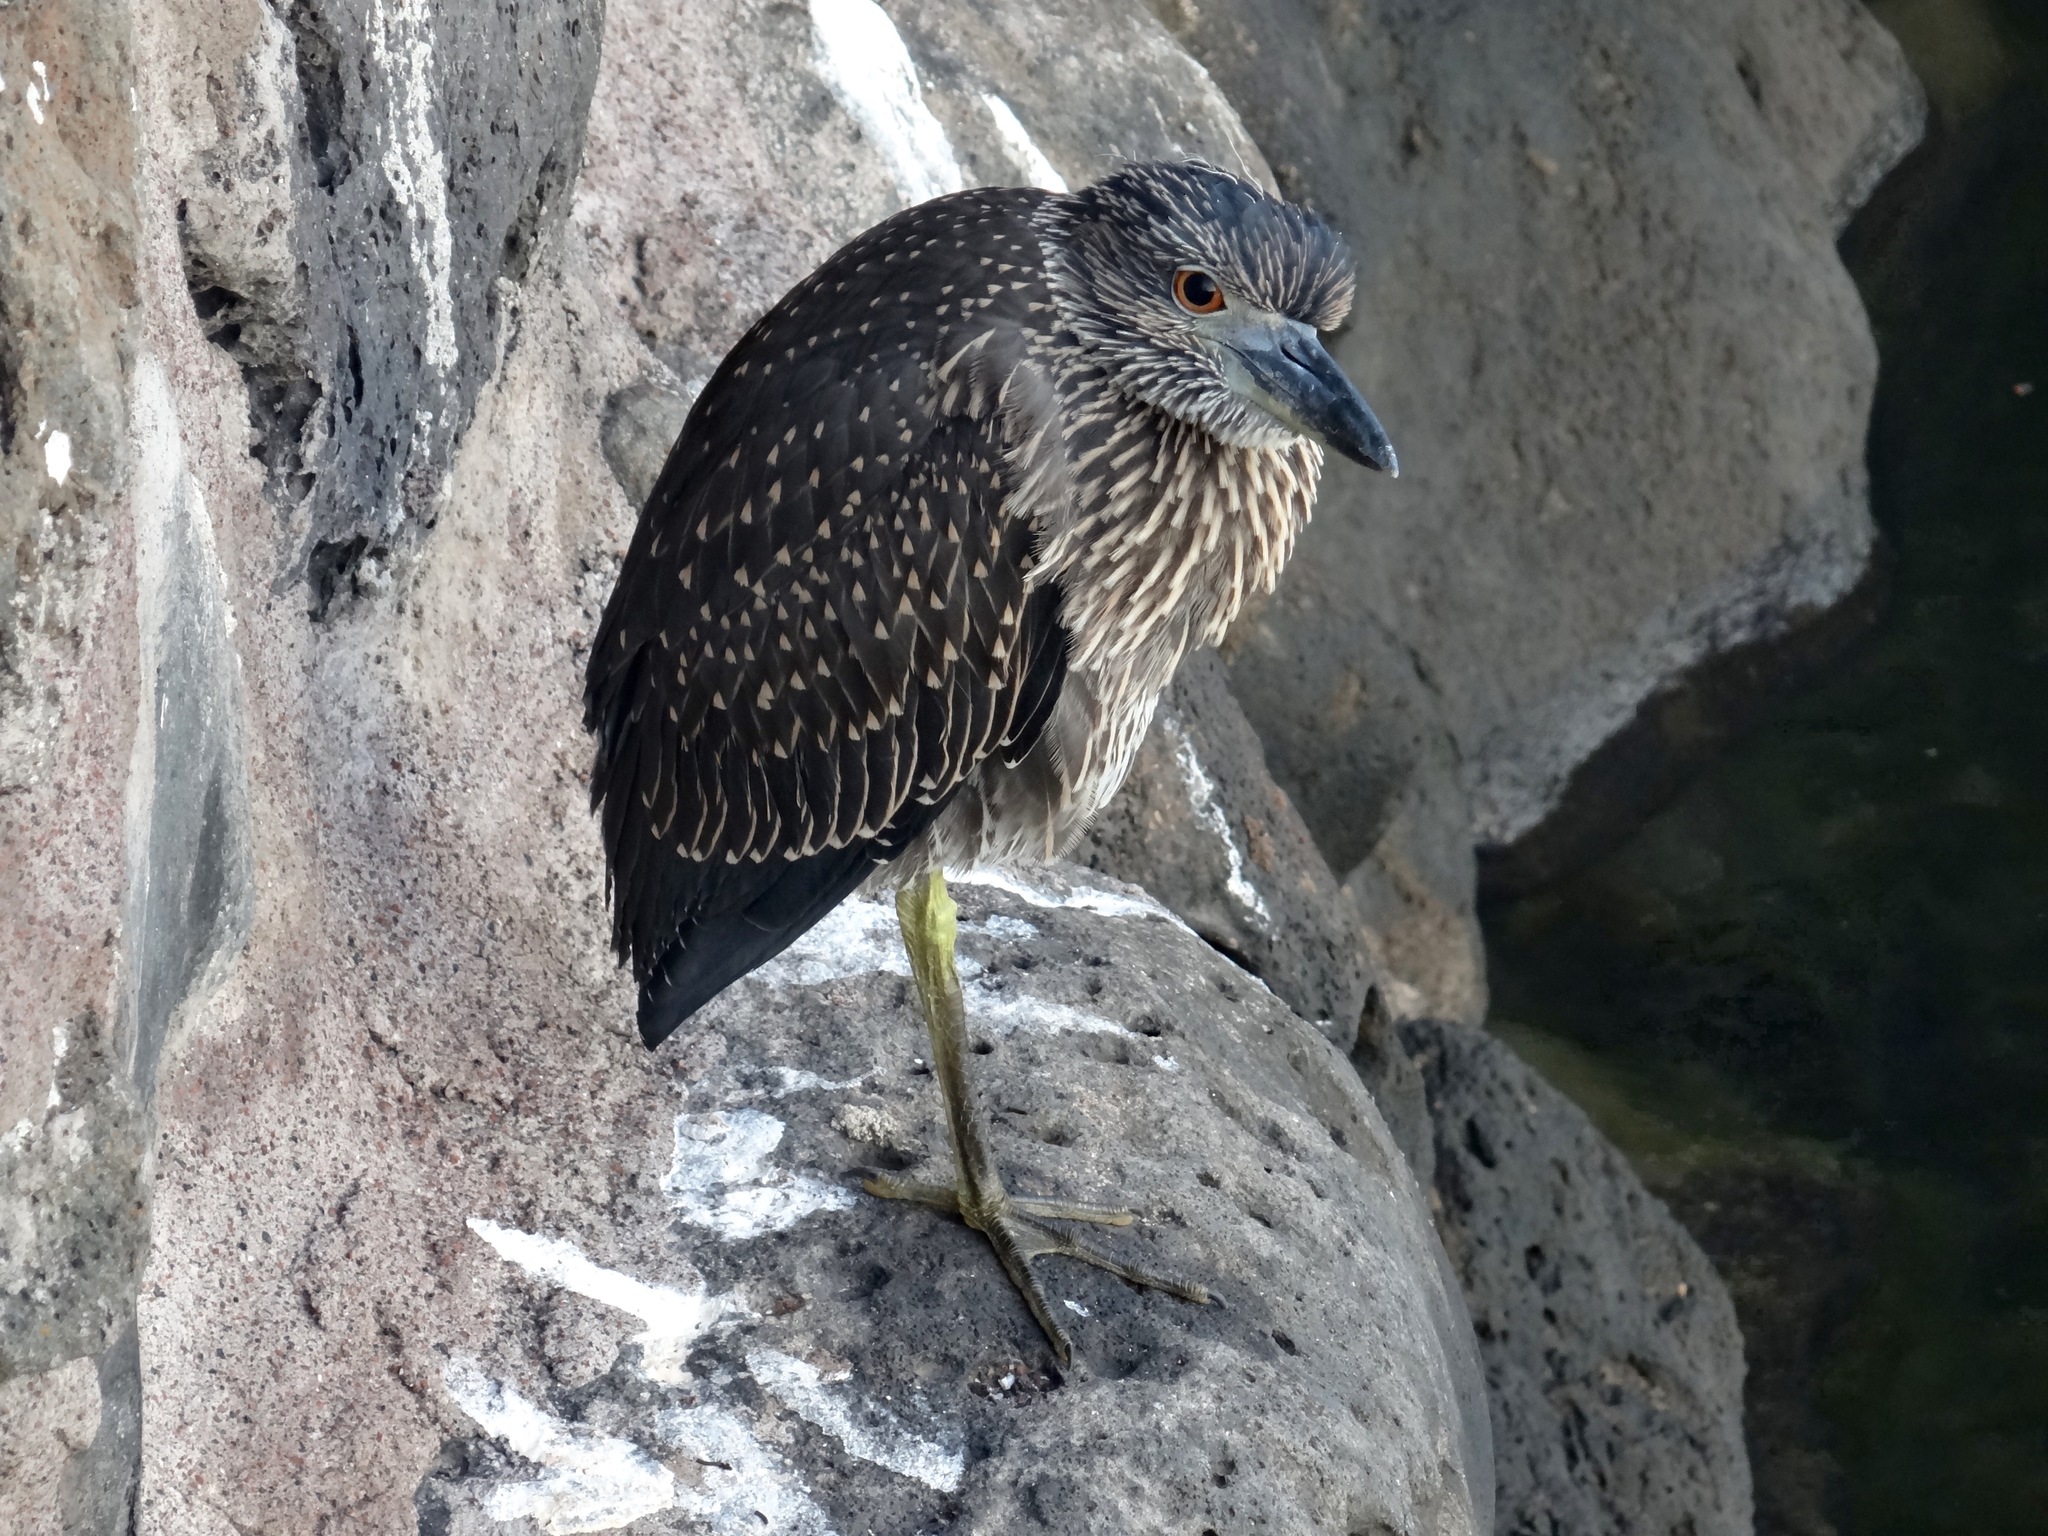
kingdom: Animalia
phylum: Chordata
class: Aves
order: Pelecaniformes
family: Ardeidae
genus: Nyctanassa
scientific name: Nyctanassa violacea
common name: Yellow-crowned night heron
